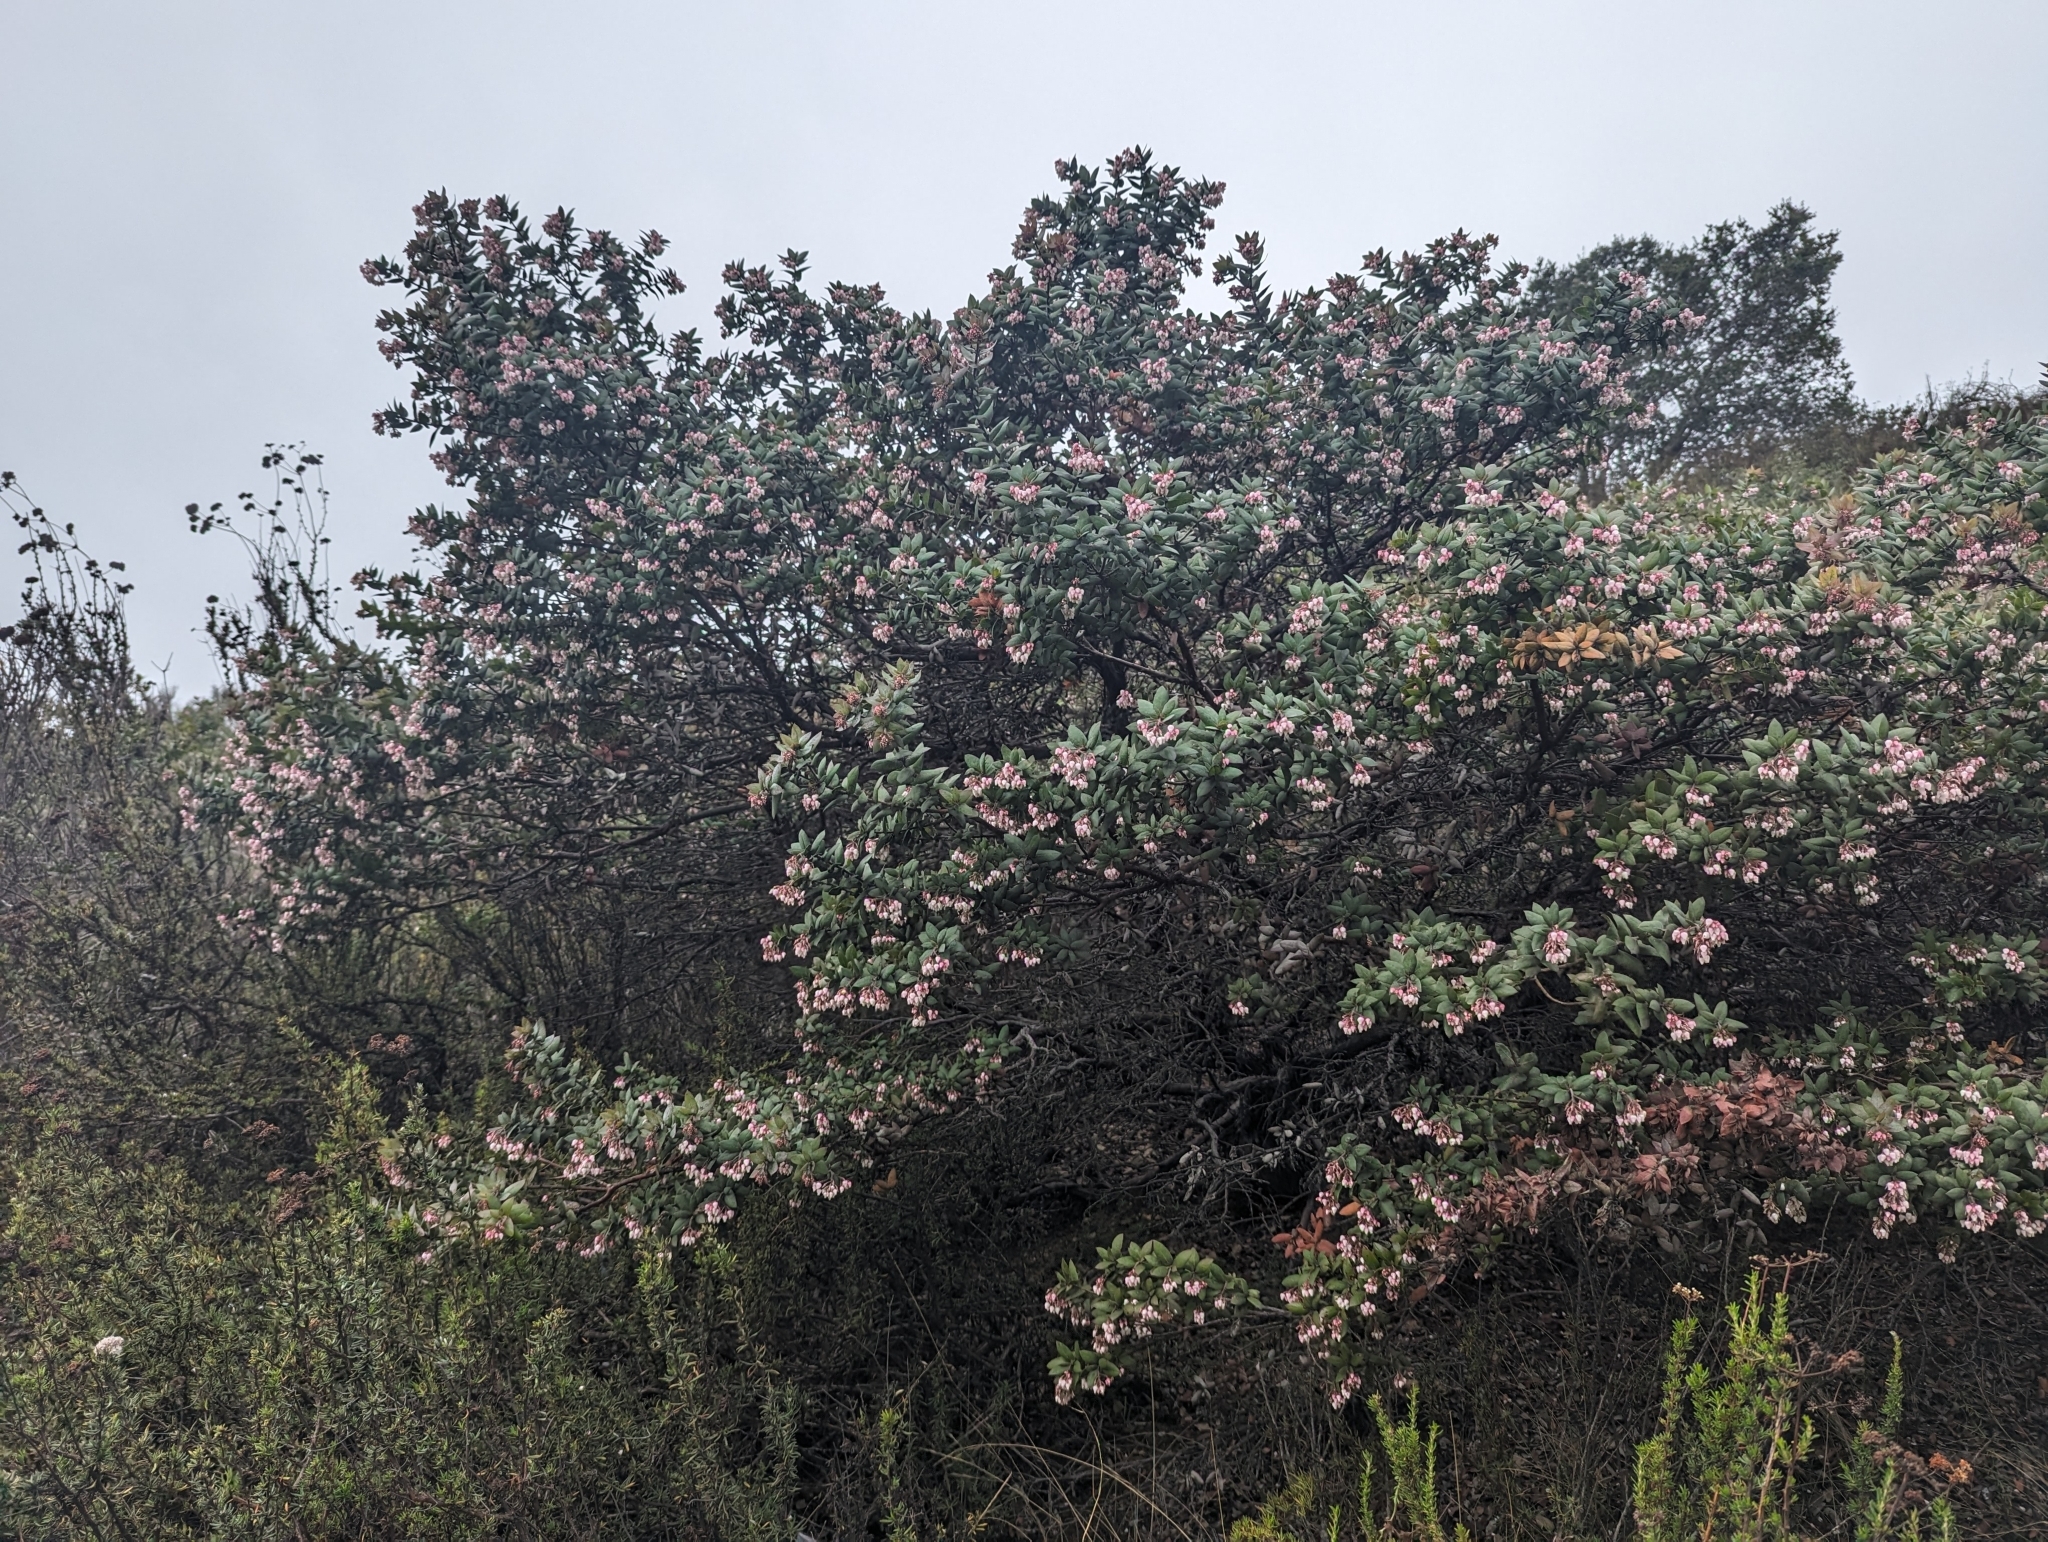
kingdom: Plantae
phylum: Tracheophyta
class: Magnoliopsida
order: Ericales
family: Ericaceae
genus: Arctostaphylos
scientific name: Arctostaphylos pajaroensis
